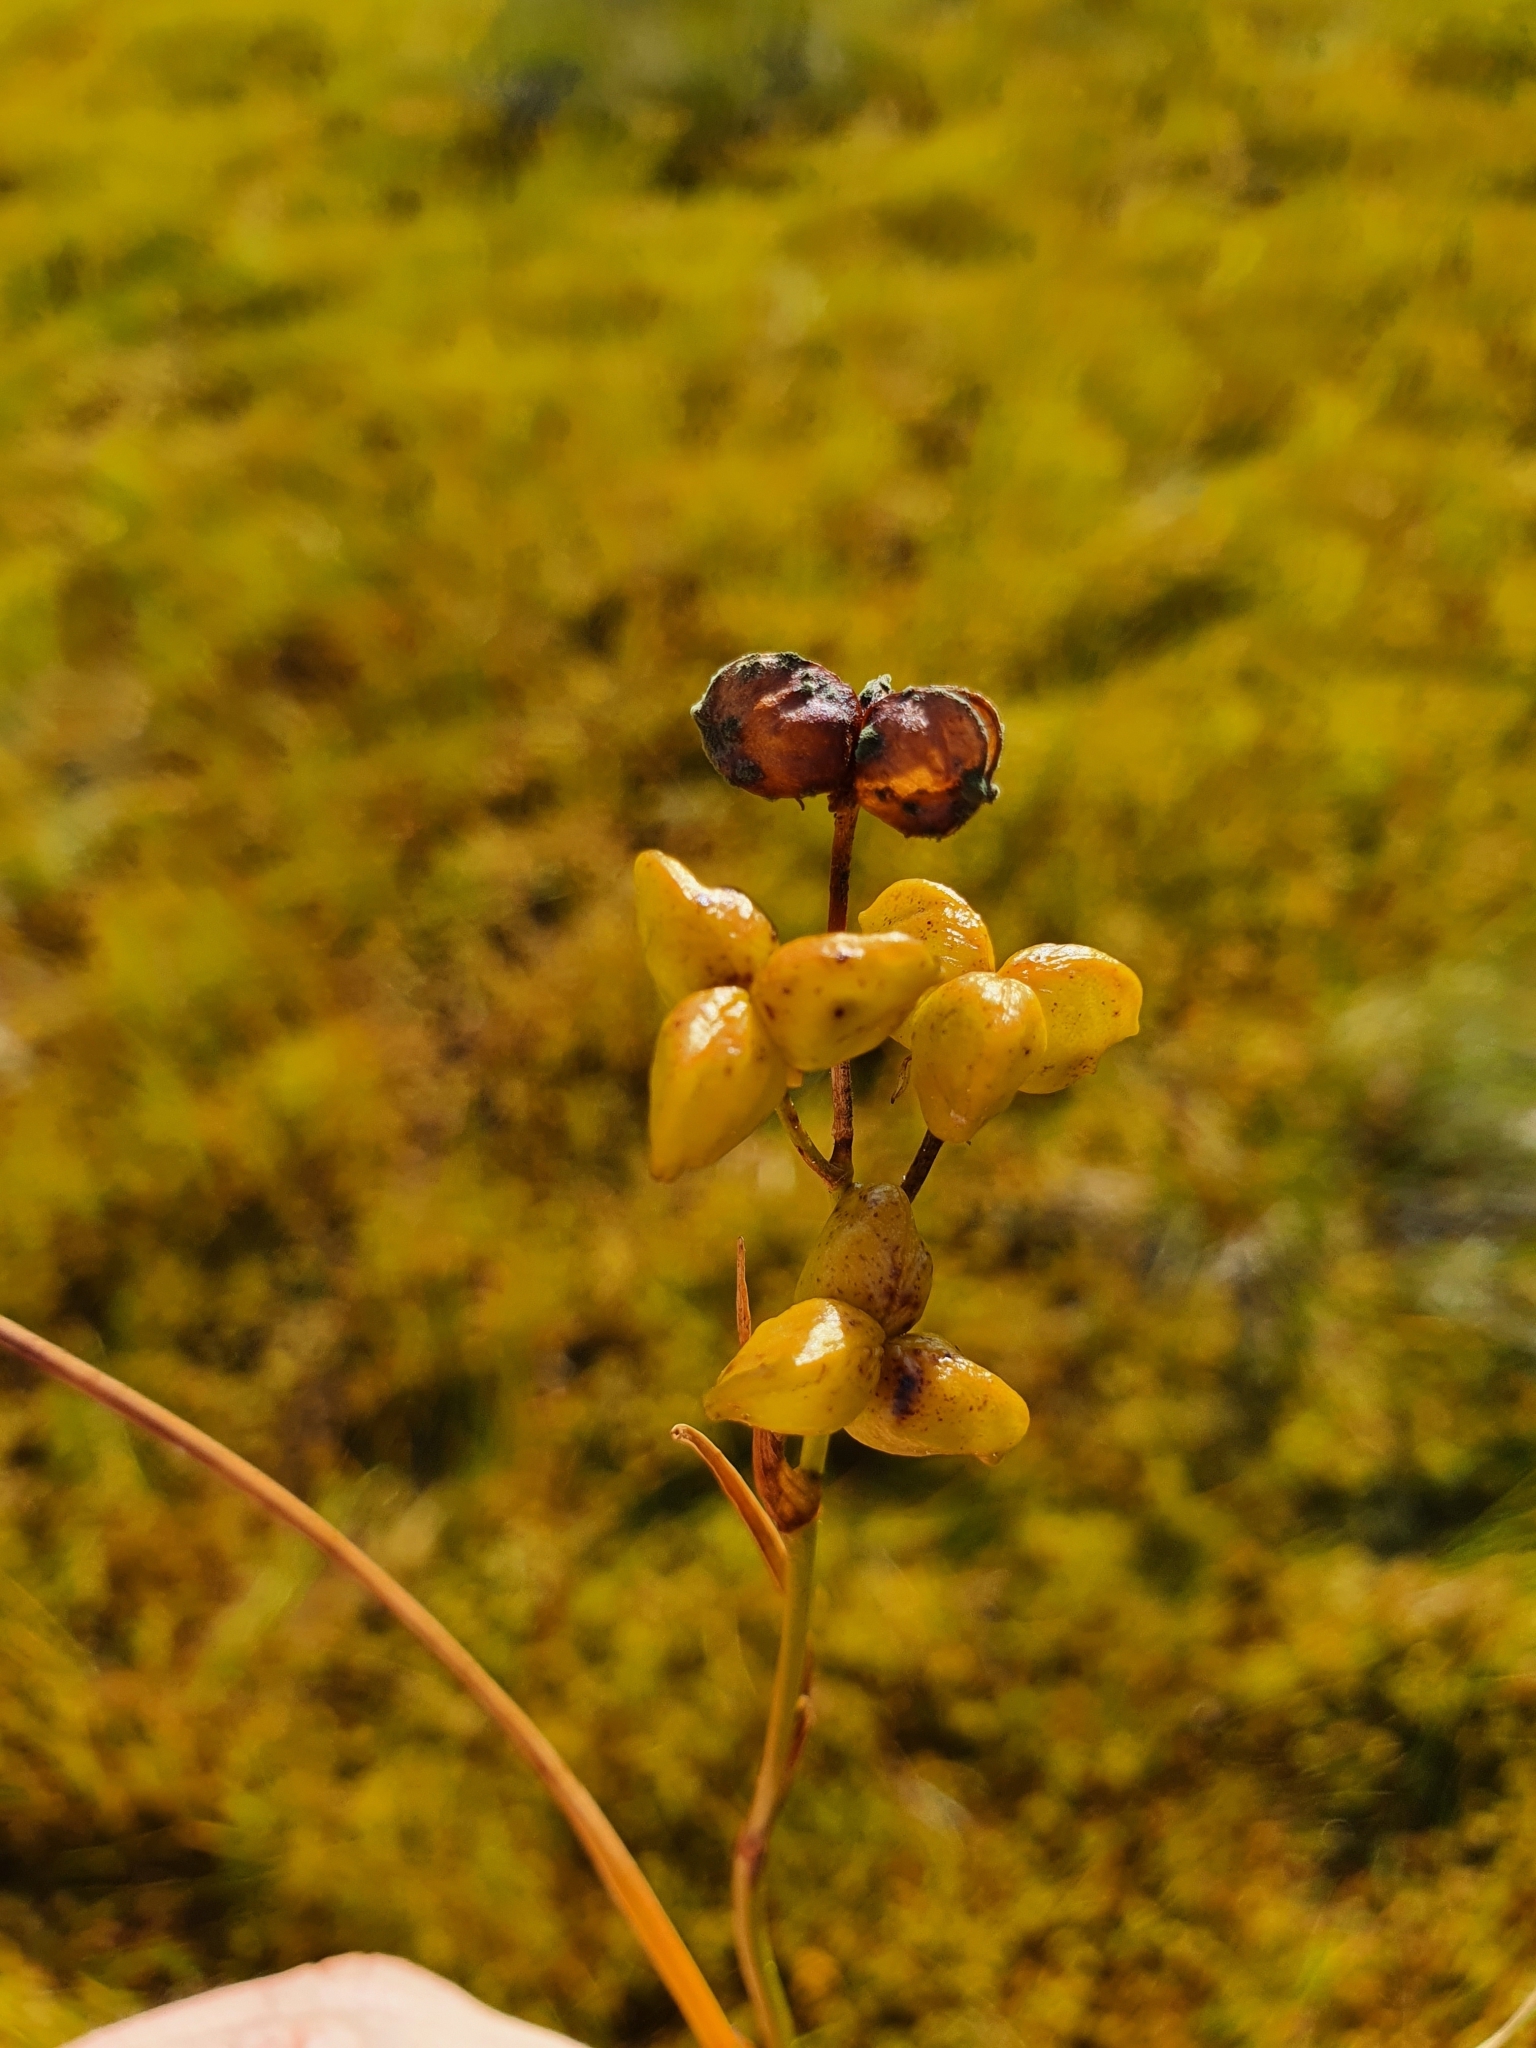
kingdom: Plantae
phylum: Tracheophyta
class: Liliopsida
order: Alismatales
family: Scheuchzeriaceae
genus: Scheuchzeria
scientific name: Scheuchzeria palustris
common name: Rannoch-rush
